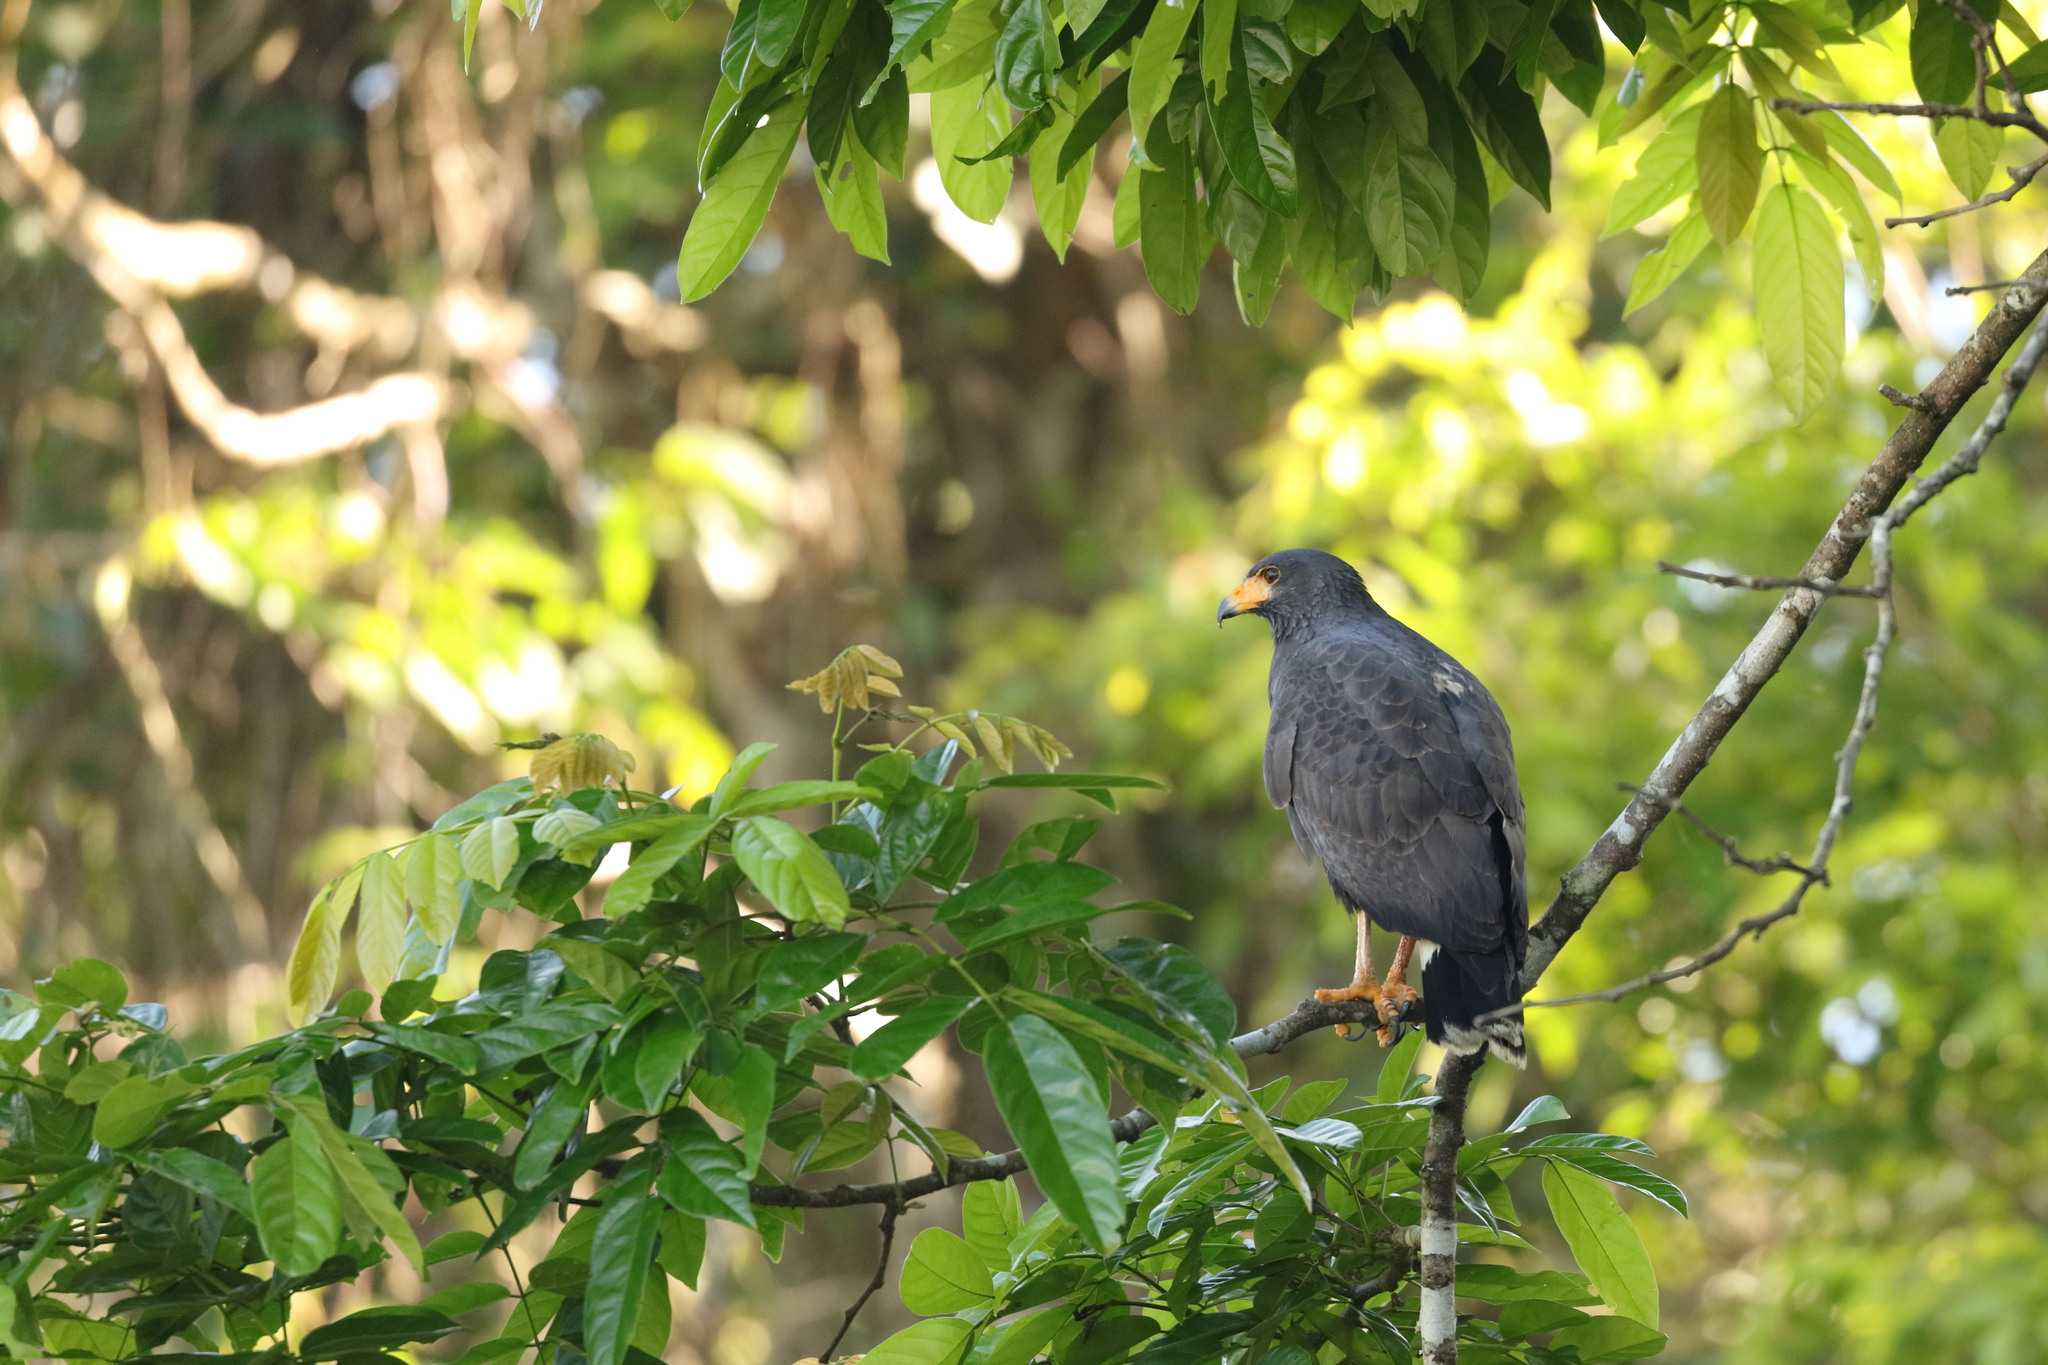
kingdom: Animalia
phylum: Chordata
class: Aves
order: Accipitriformes
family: Accipitridae
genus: Buteogallus
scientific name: Buteogallus anthracinus
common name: Common black hawk
